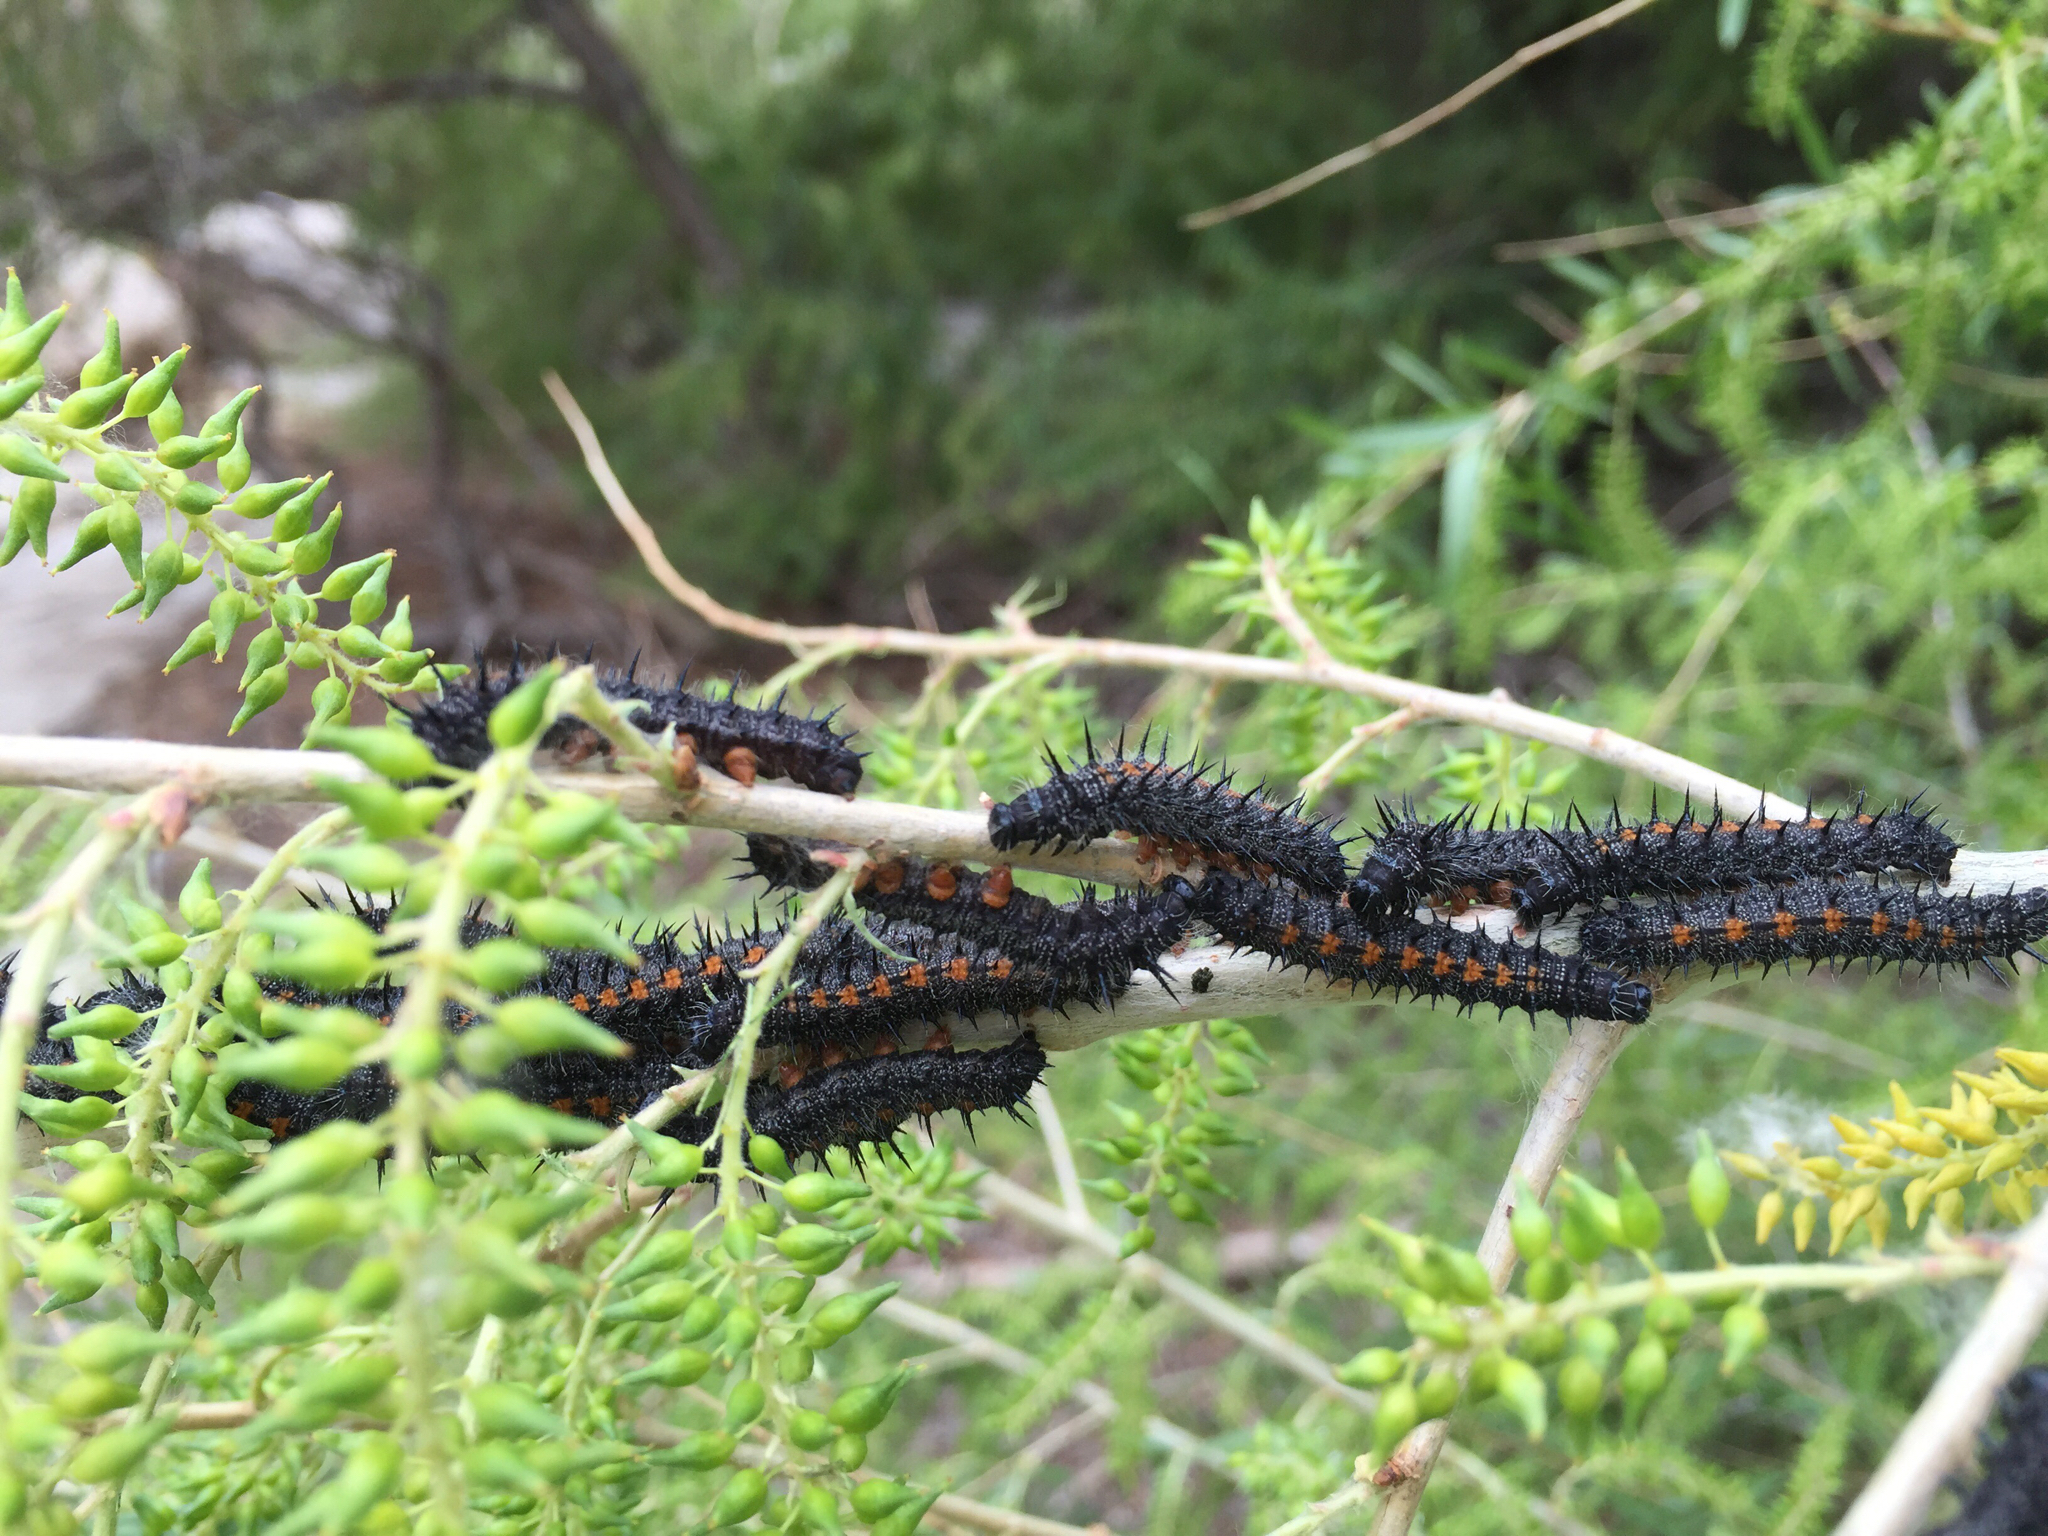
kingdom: Animalia
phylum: Arthropoda
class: Insecta
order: Lepidoptera
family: Nymphalidae
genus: Nymphalis
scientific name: Nymphalis antiopa
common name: Camberwell beauty
